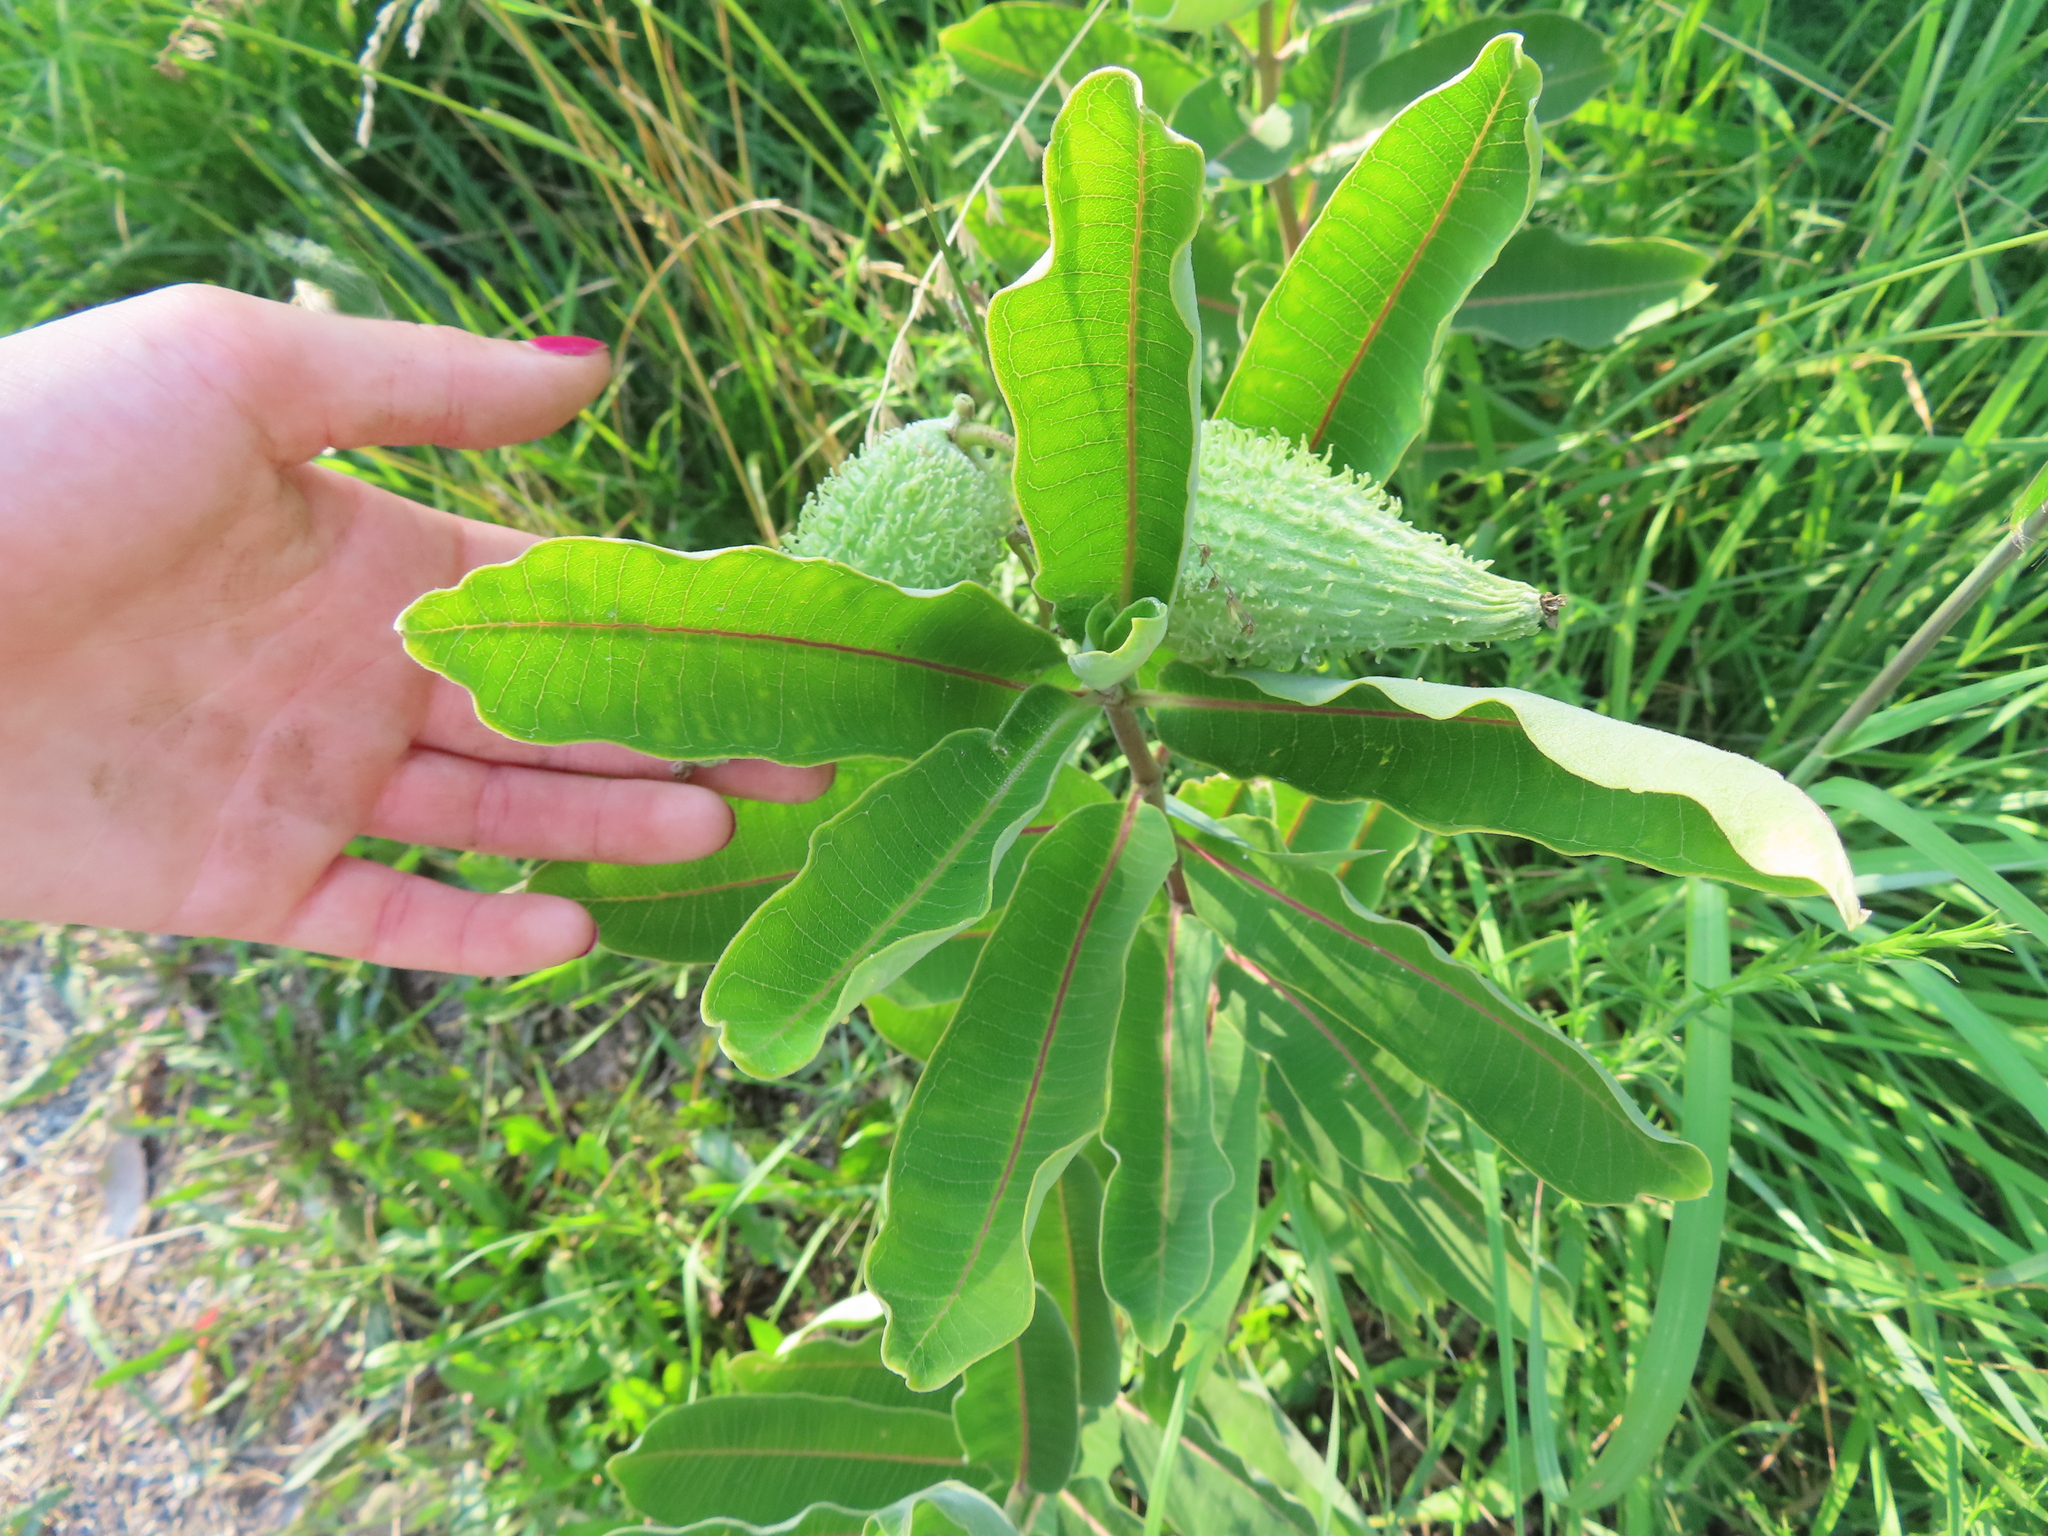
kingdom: Plantae
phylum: Tracheophyta
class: Magnoliopsida
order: Gentianales
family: Apocynaceae
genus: Asclepias
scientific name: Asclepias syriaca
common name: Common milkweed
